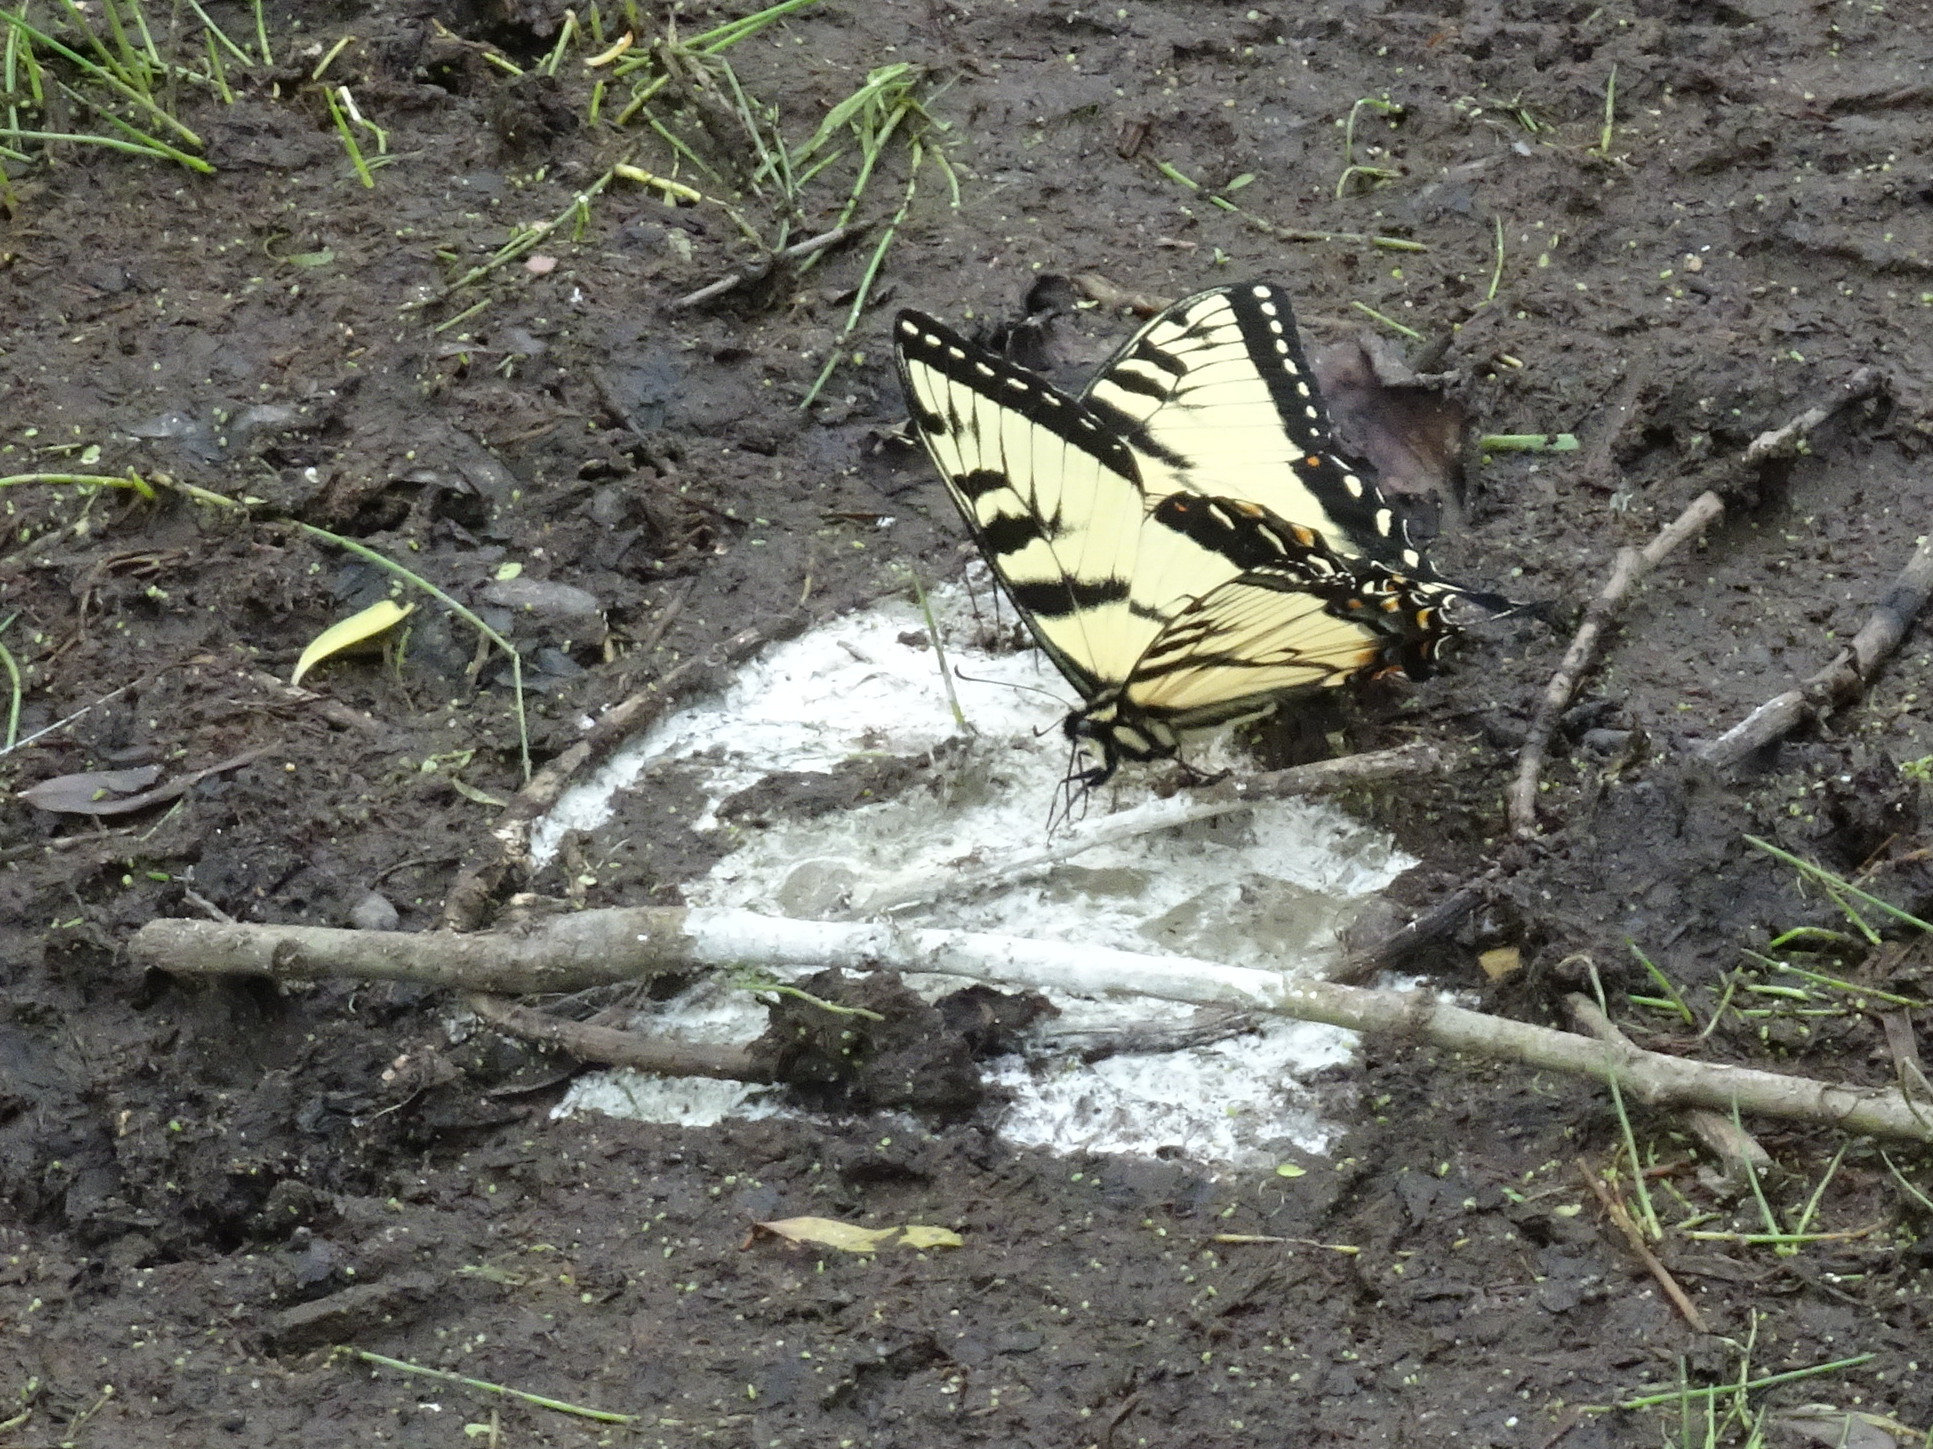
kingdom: Animalia
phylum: Arthropoda
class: Insecta
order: Lepidoptera
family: Papilionidae
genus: Papilio
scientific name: Papilio glaucus
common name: Tiger swallowtail
